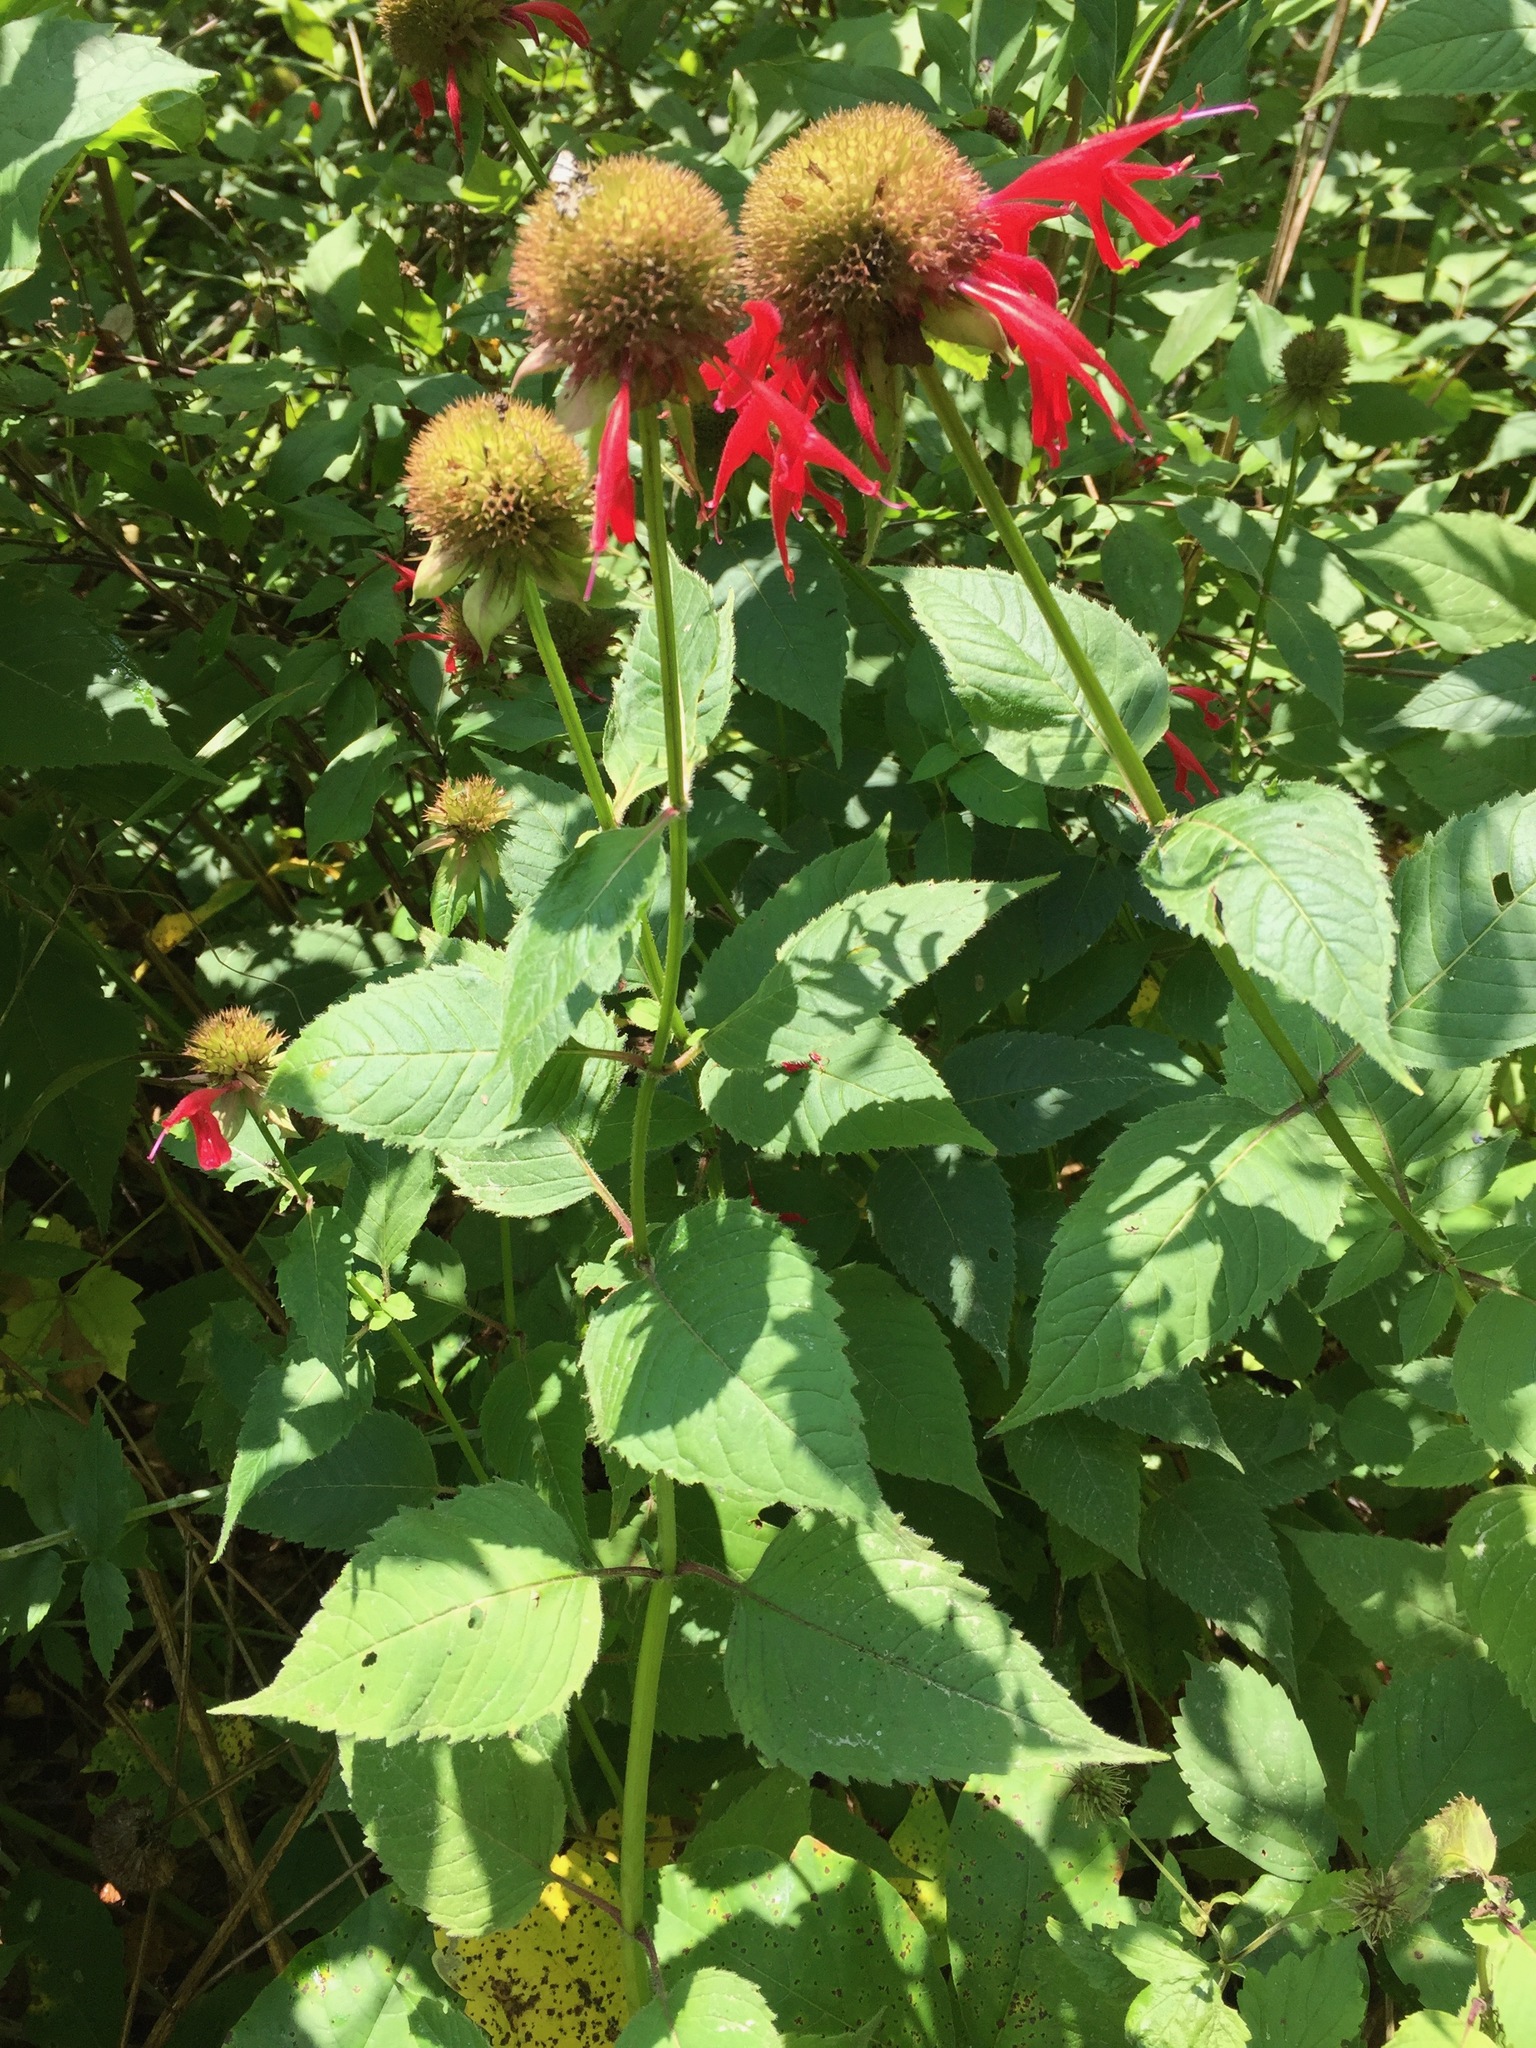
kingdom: Plantae
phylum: Tracheophyta
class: Magnoliopsida
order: Lamiales
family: Lamiaceae
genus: Monarda
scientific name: Monarda didyma
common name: Beebalm
